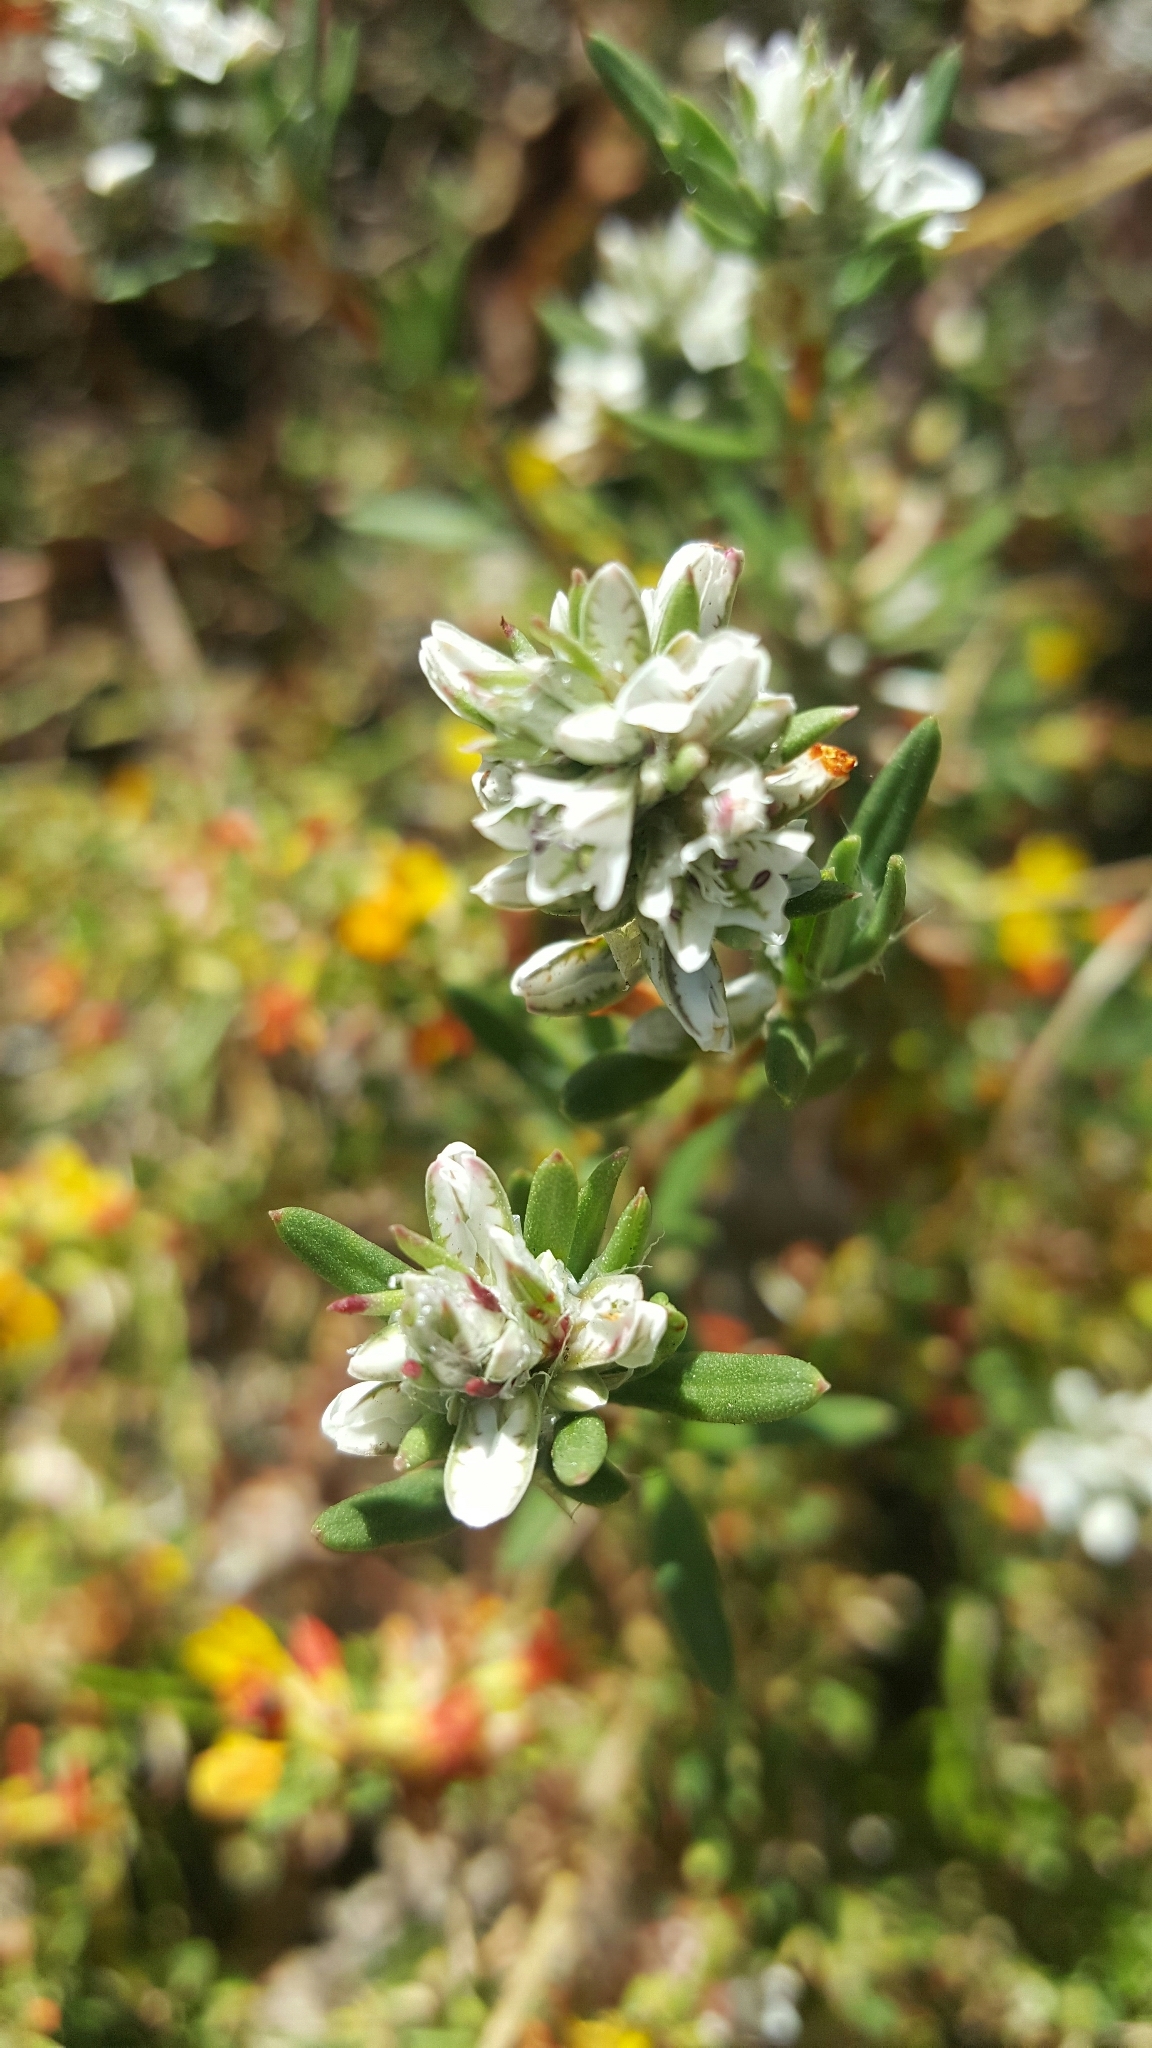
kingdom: Plantae
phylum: Tracheophyta
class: Magnoliopsida
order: Caryophyllales
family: Polygonaceae
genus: Polygonum
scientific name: Polygonum paronychia
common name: Dune knotweed
